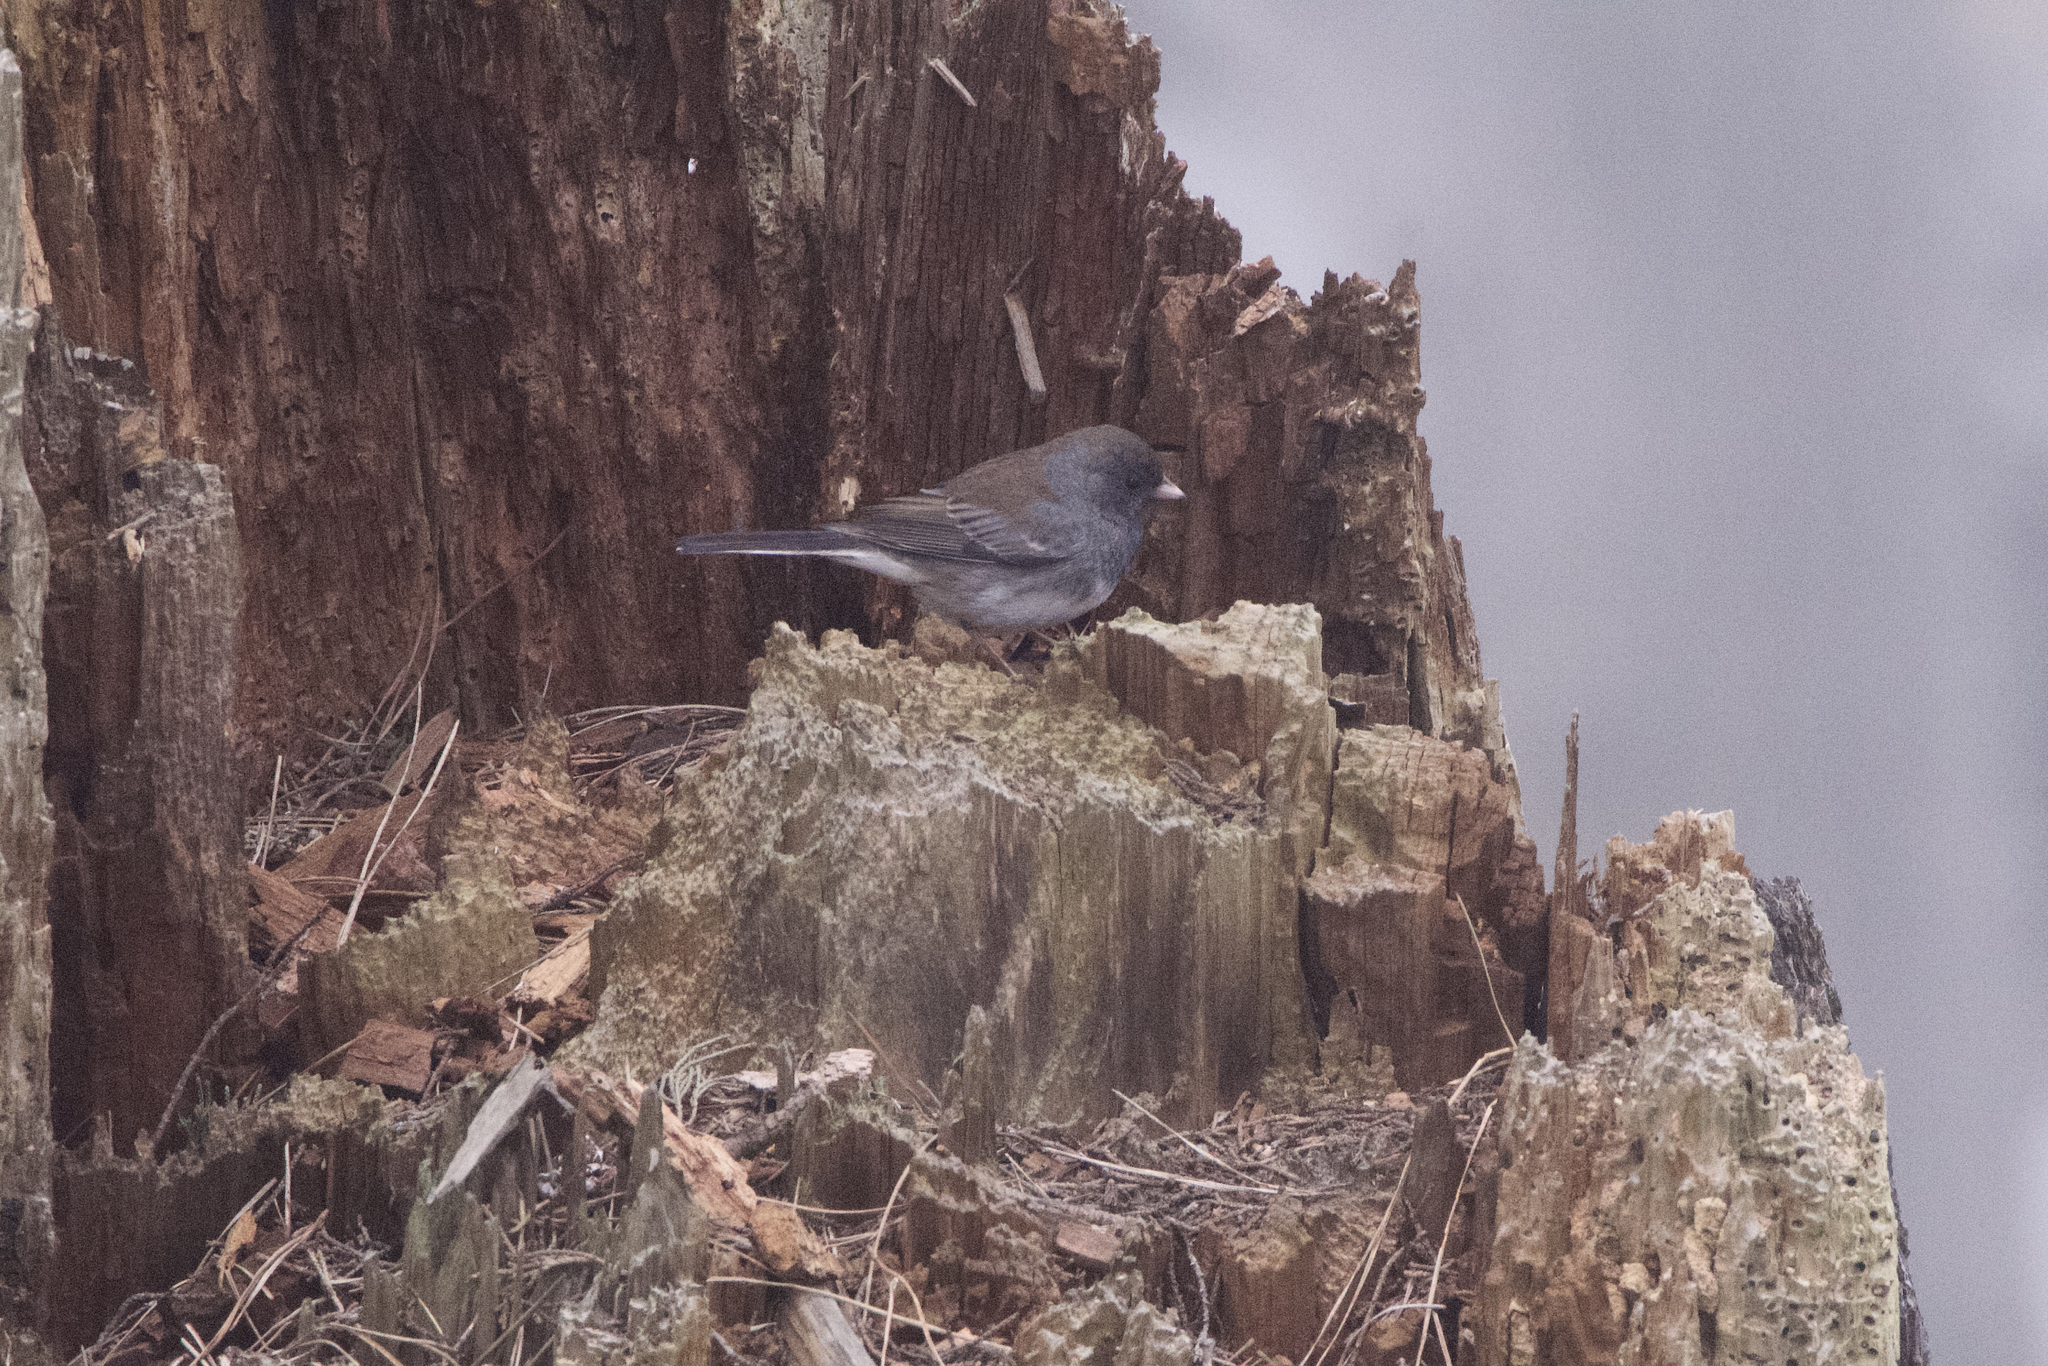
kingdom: Animalia
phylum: Chordata
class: Aves
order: Passeriformes
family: Passerellidae
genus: Junco
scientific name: Junco hyemalis
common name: Dark-eyed junco
